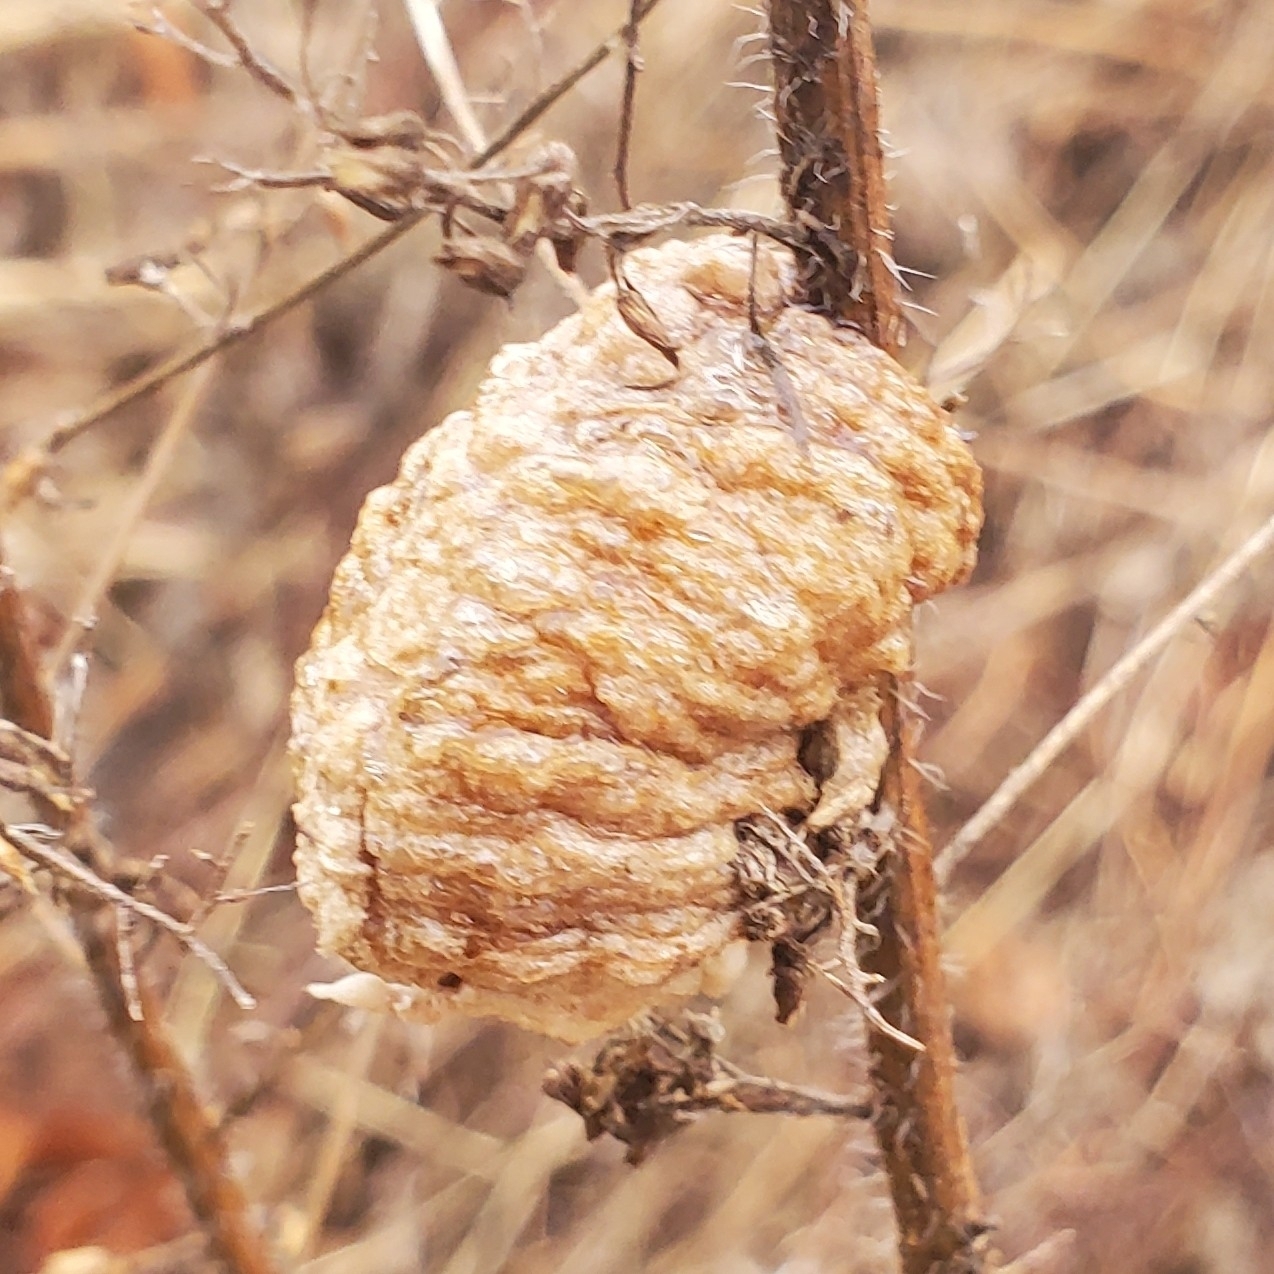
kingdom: Animalia
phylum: Arthropoda
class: Insecta
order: Mantodea
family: Mantidae
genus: Tenodera
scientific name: Tenodera sinensis
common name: Chinese mantis
